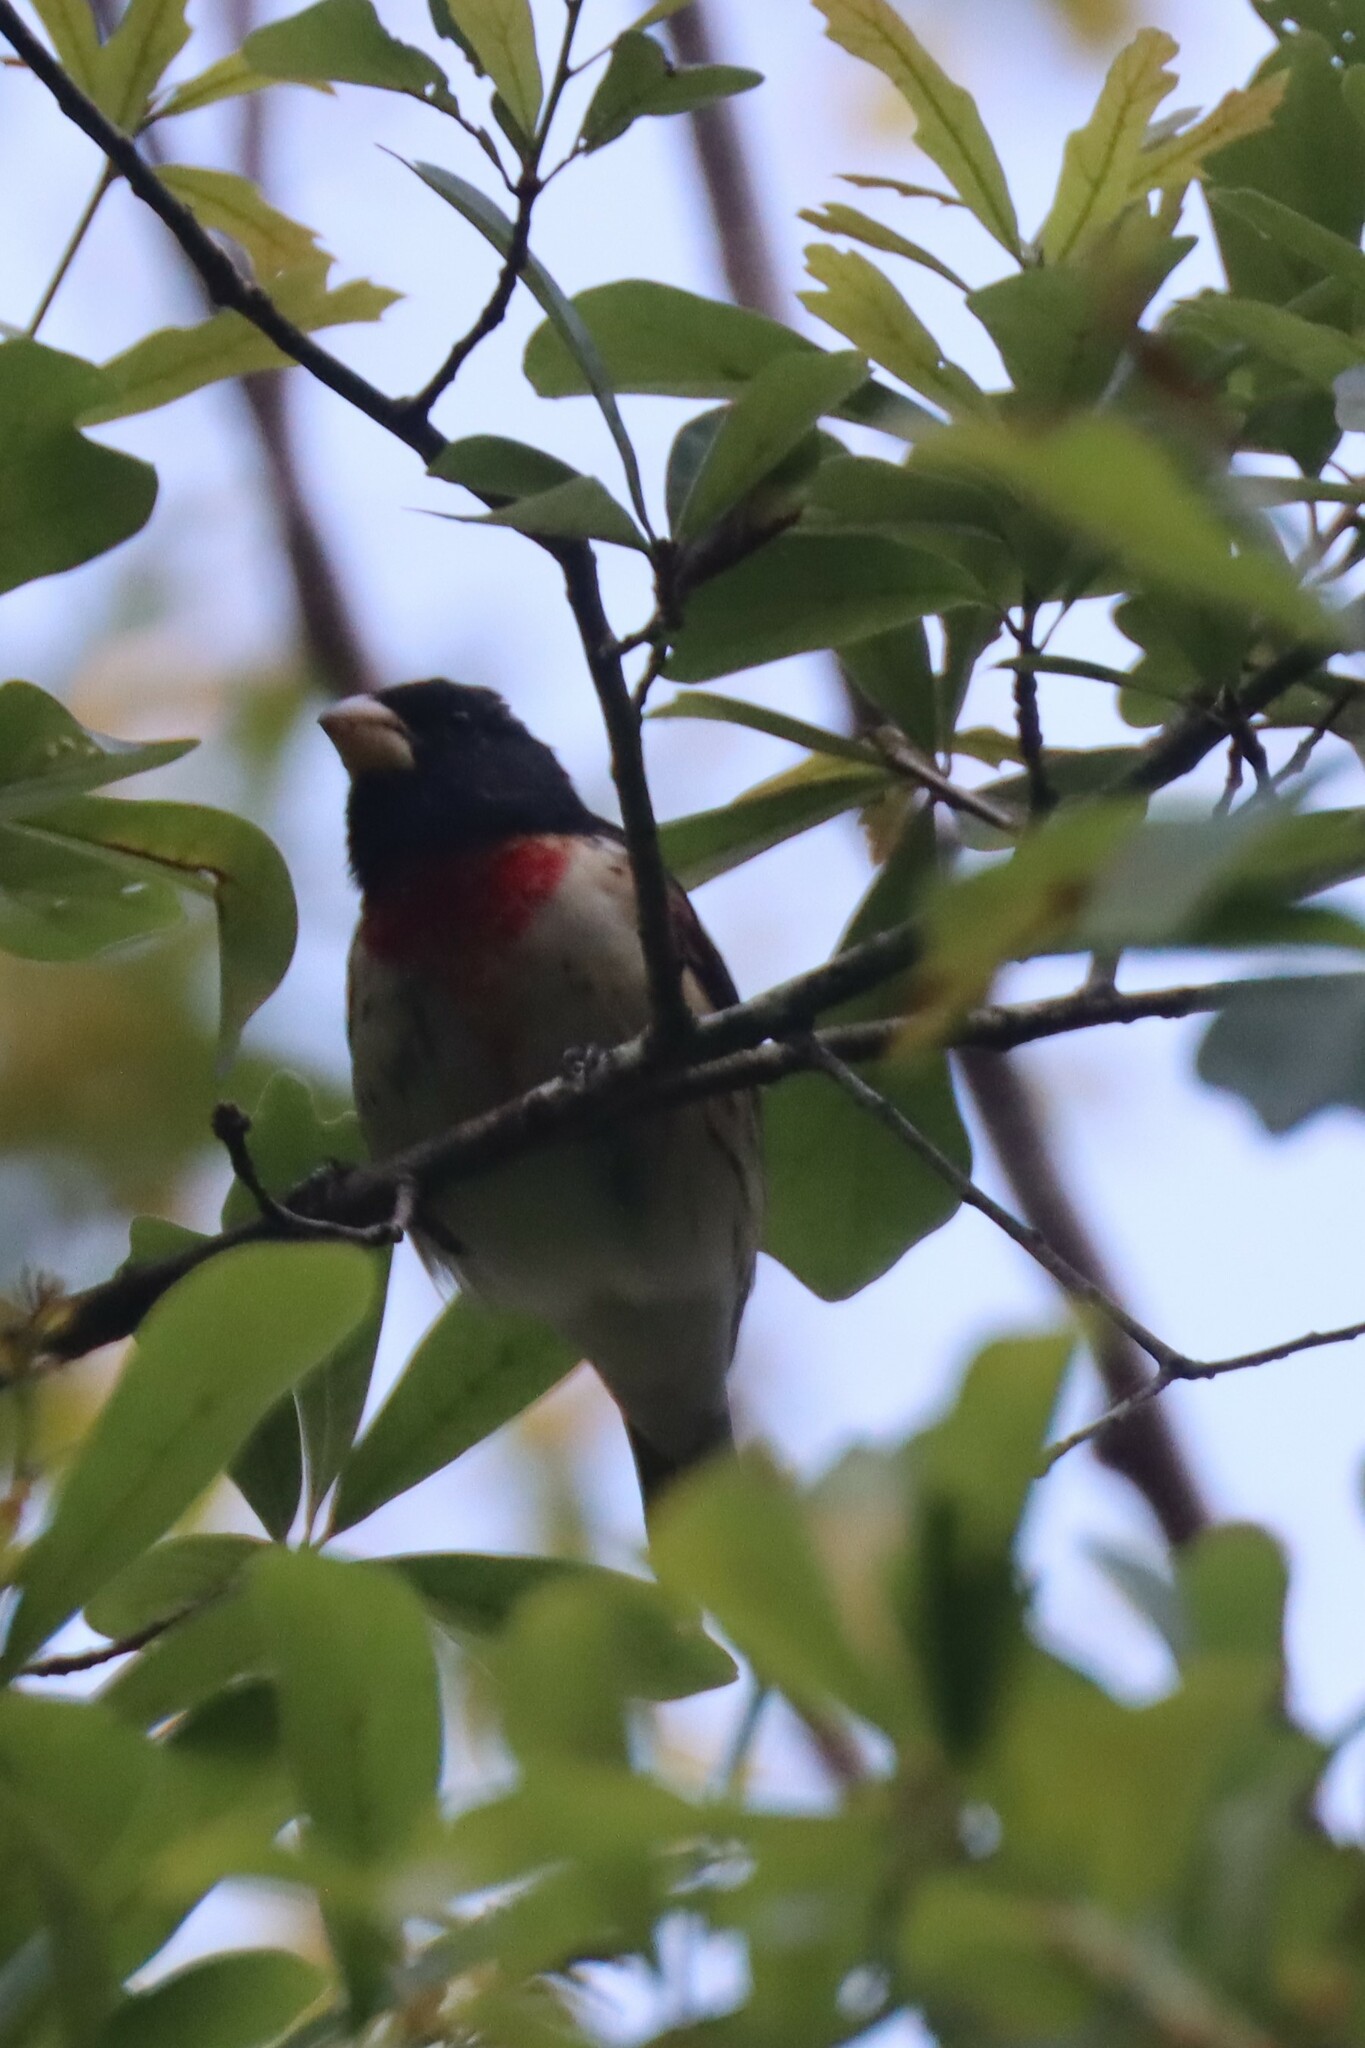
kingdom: Animalia
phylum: Chordata
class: Aves
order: Passeriformes
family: Cardinalidae
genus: Pheucticus
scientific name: Pheucticus ludovicianus
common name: Rose-breasted grosbeak
